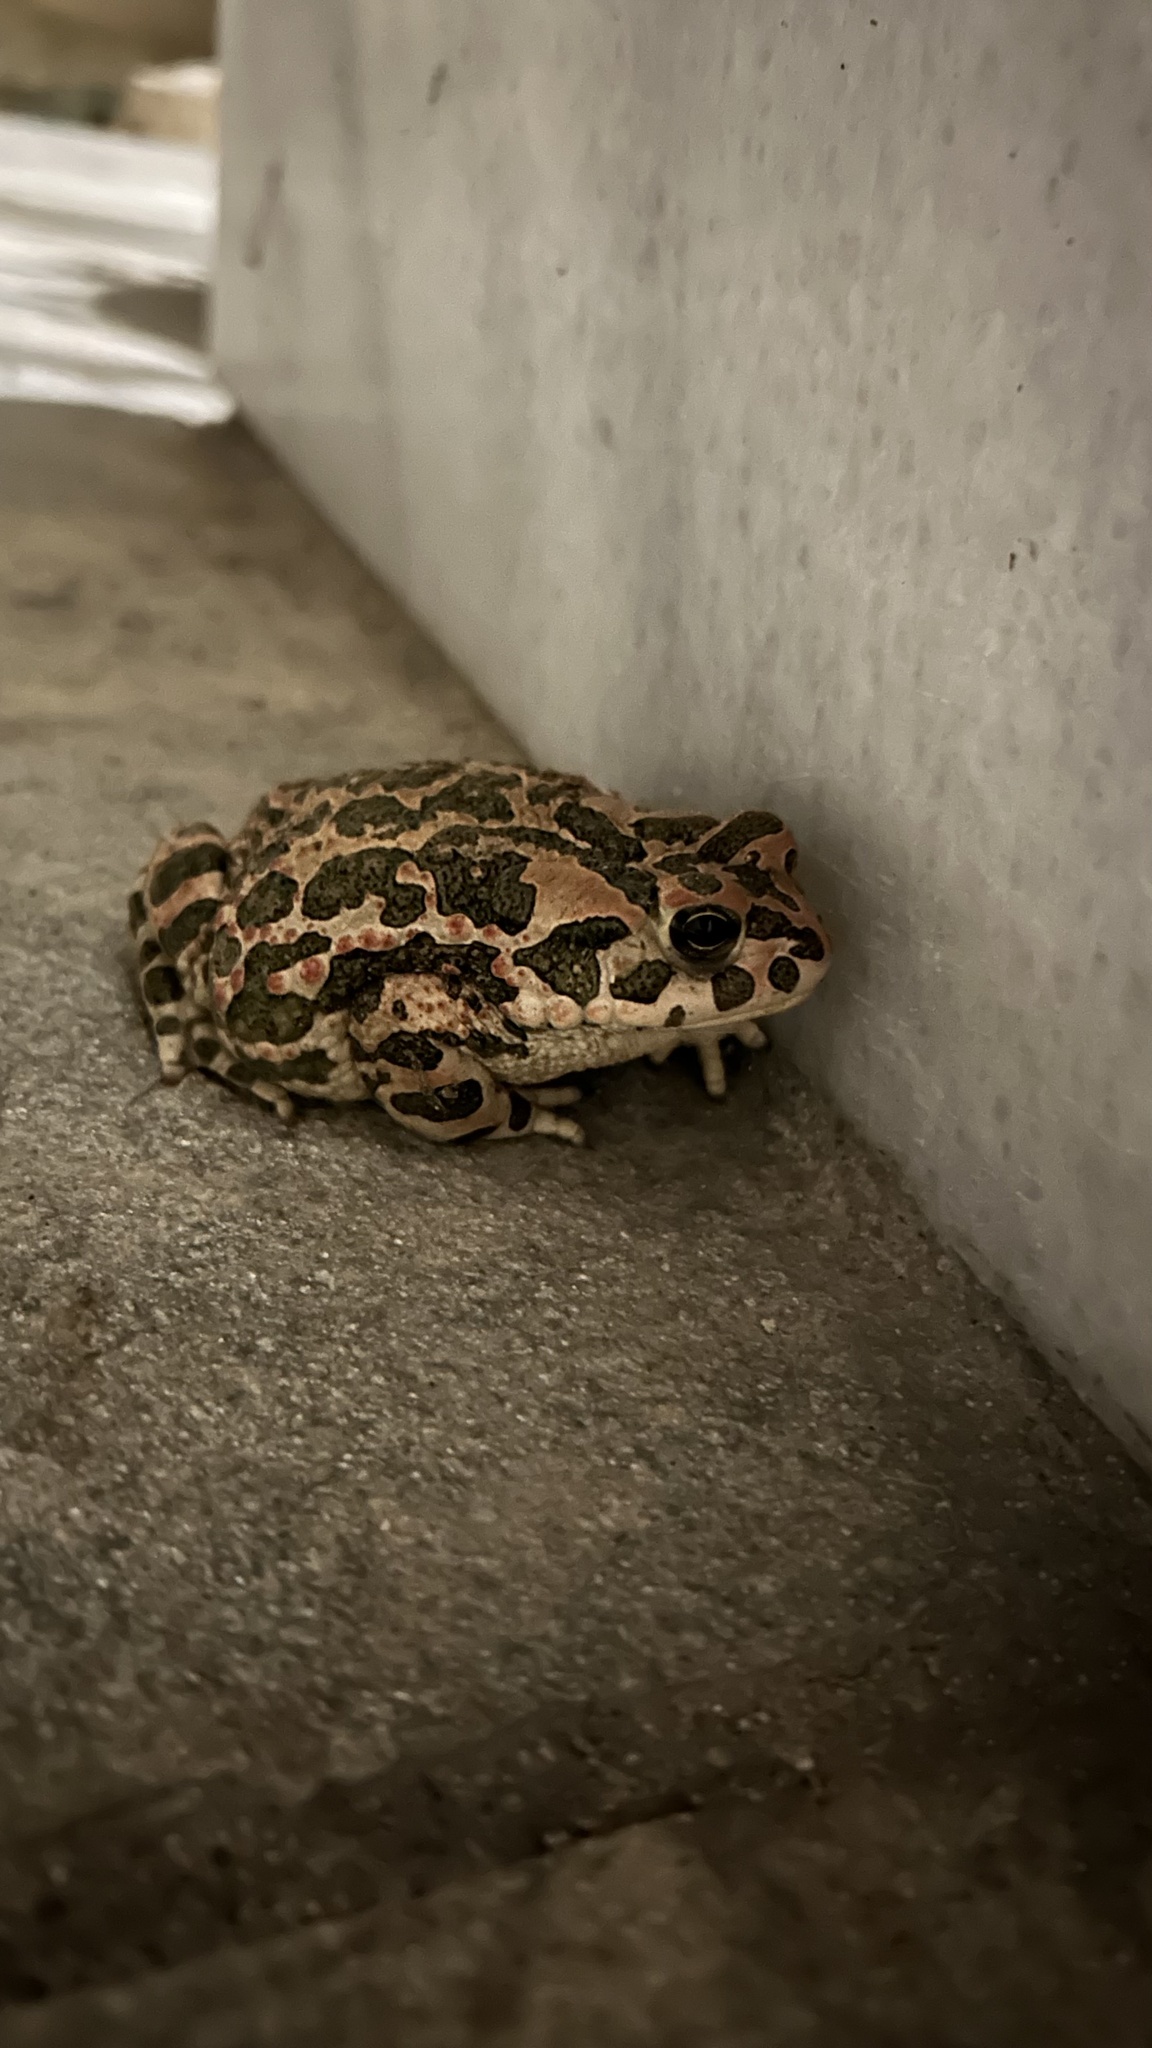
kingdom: Animalia
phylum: Chordata
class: Amphibia
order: Anura
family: Bufonidae
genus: Bufotes
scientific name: Bufotes viridis
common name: European green toad
